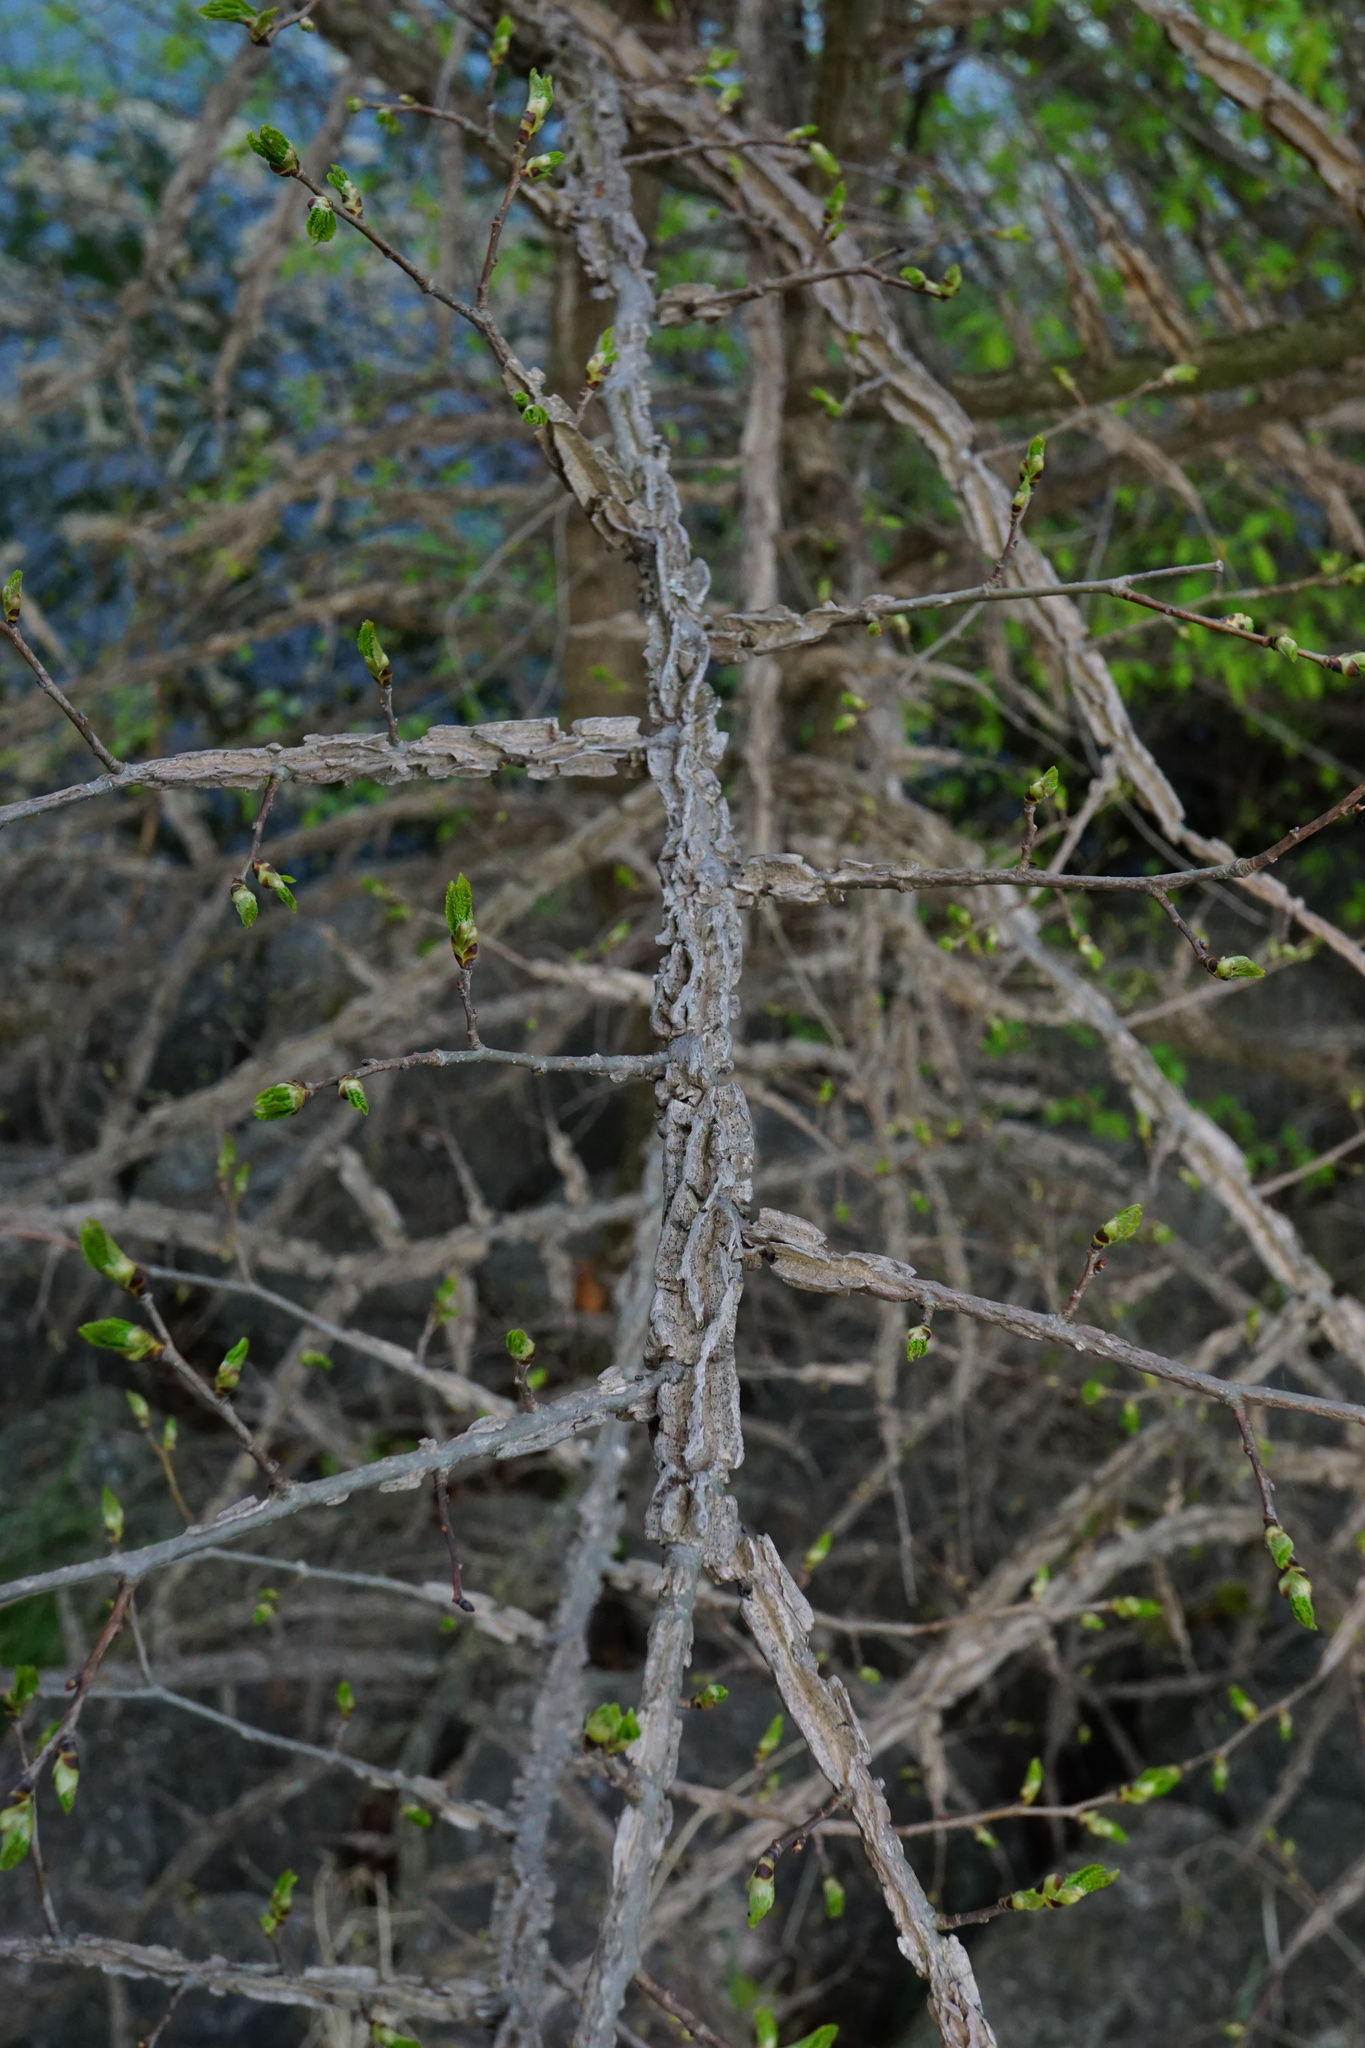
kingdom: Plantae
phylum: Tracheophyta
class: Magnoliopsida
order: Rosales
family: Ulmaceae
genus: Ulmus
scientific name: Ulmus minor
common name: Small-leaved elm
